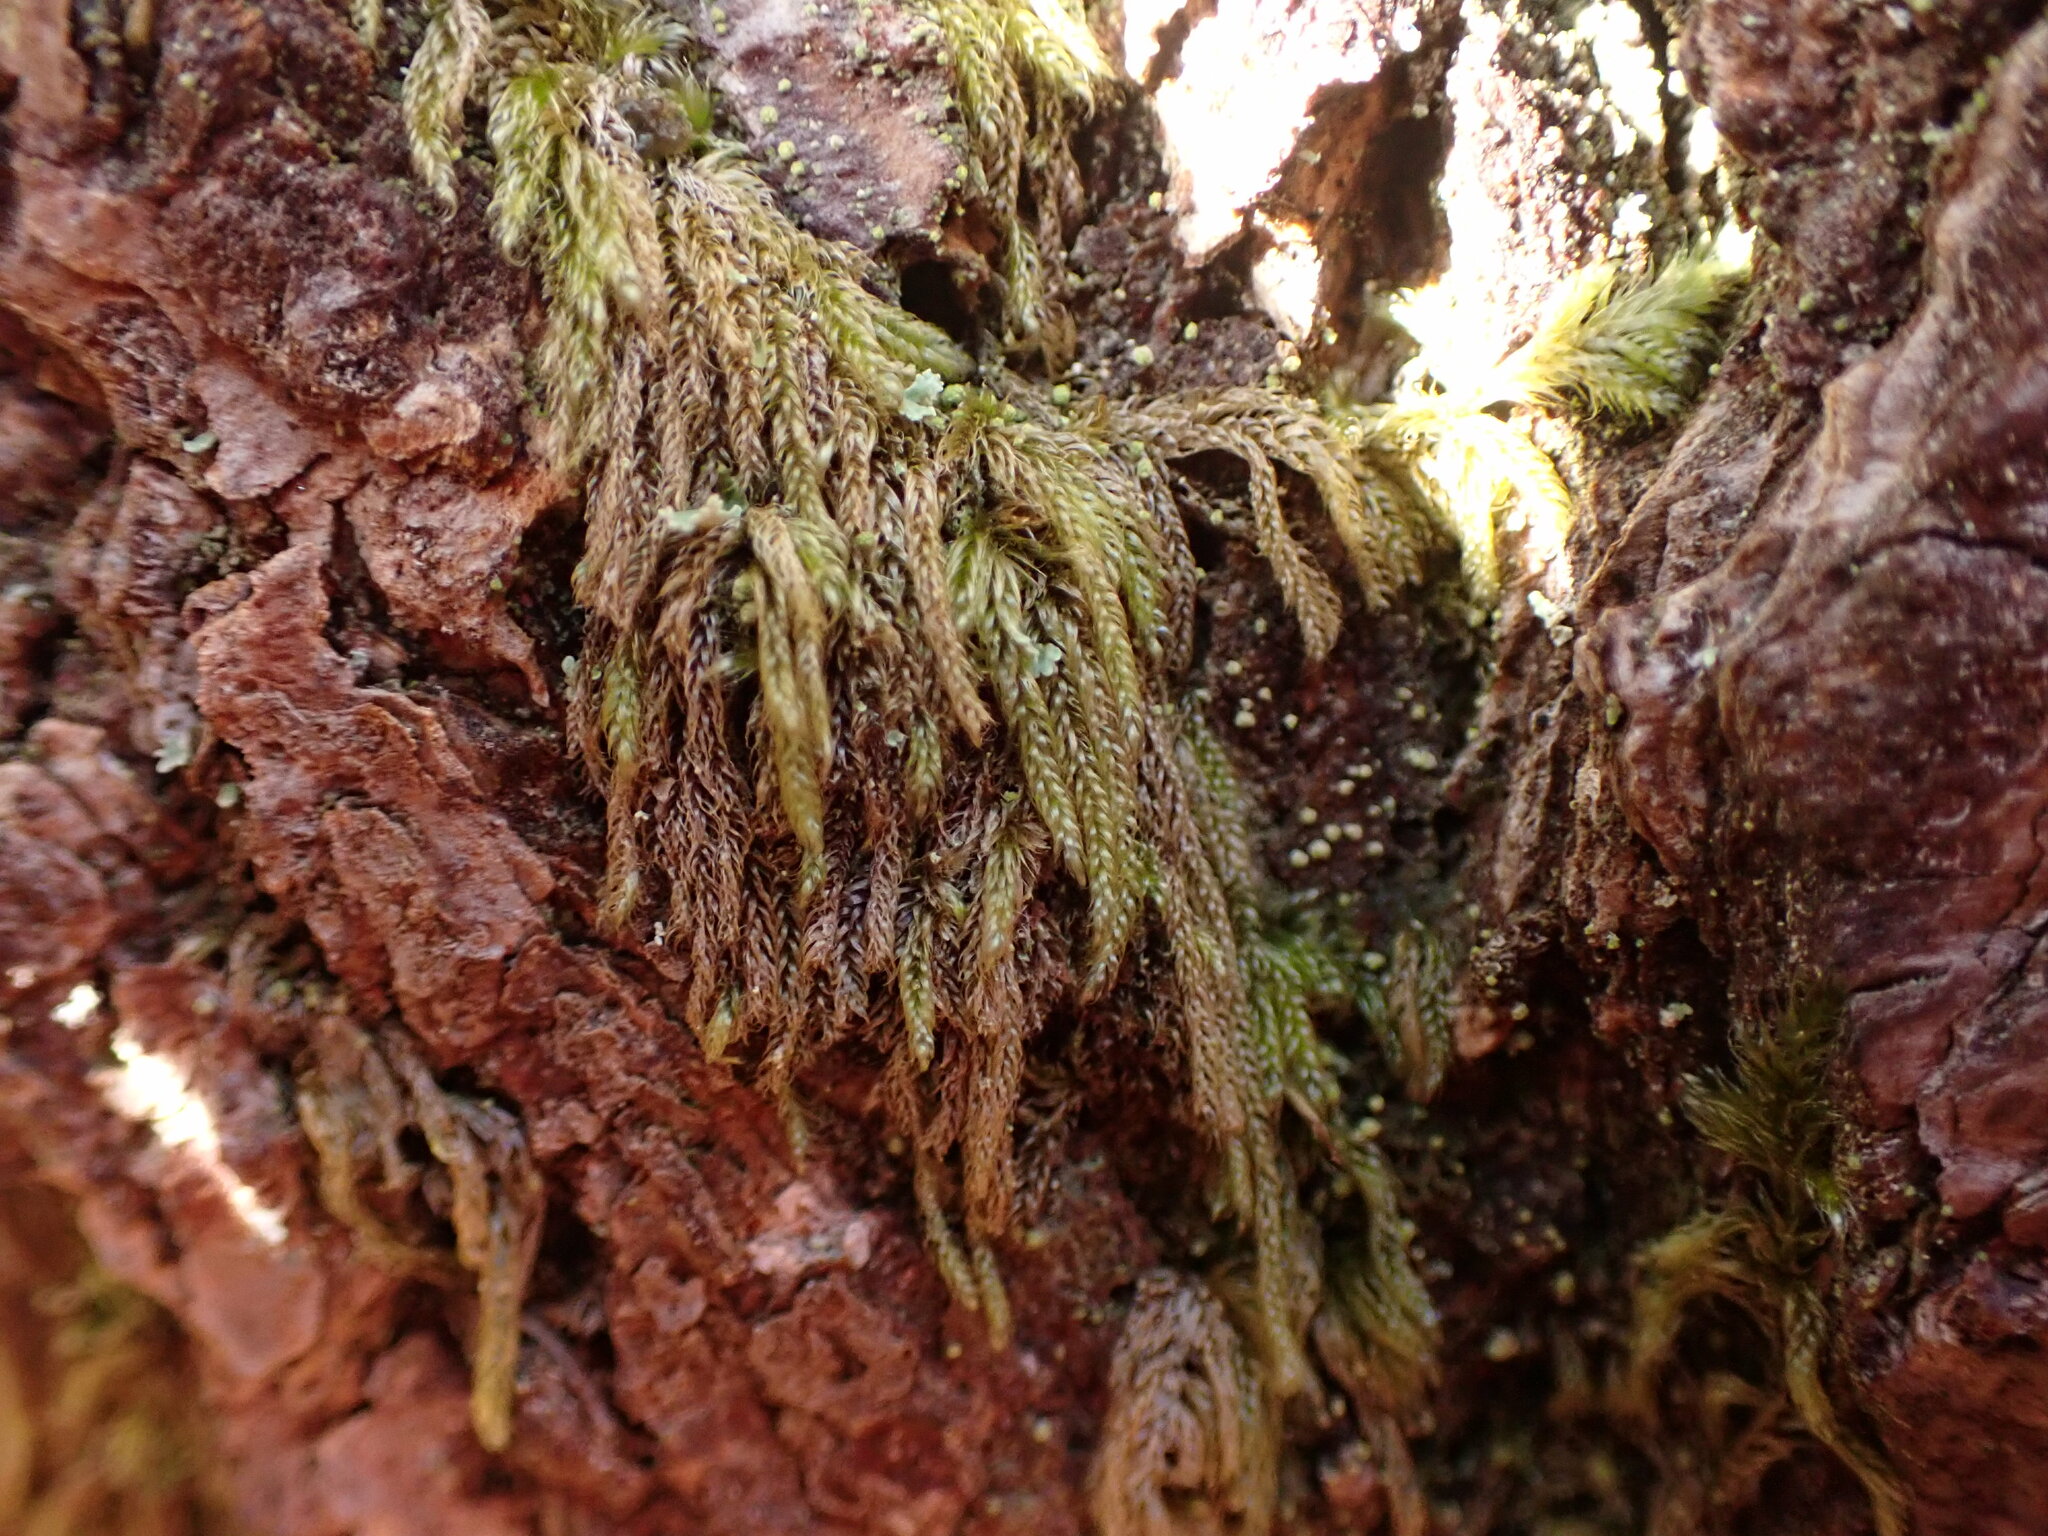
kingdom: Plantae
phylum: Bryophyta
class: Bryopsida
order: Hypnales
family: Pylaisiadelphaceae
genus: Trochophyllohypnum
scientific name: Trochophyllohypnum circinale
